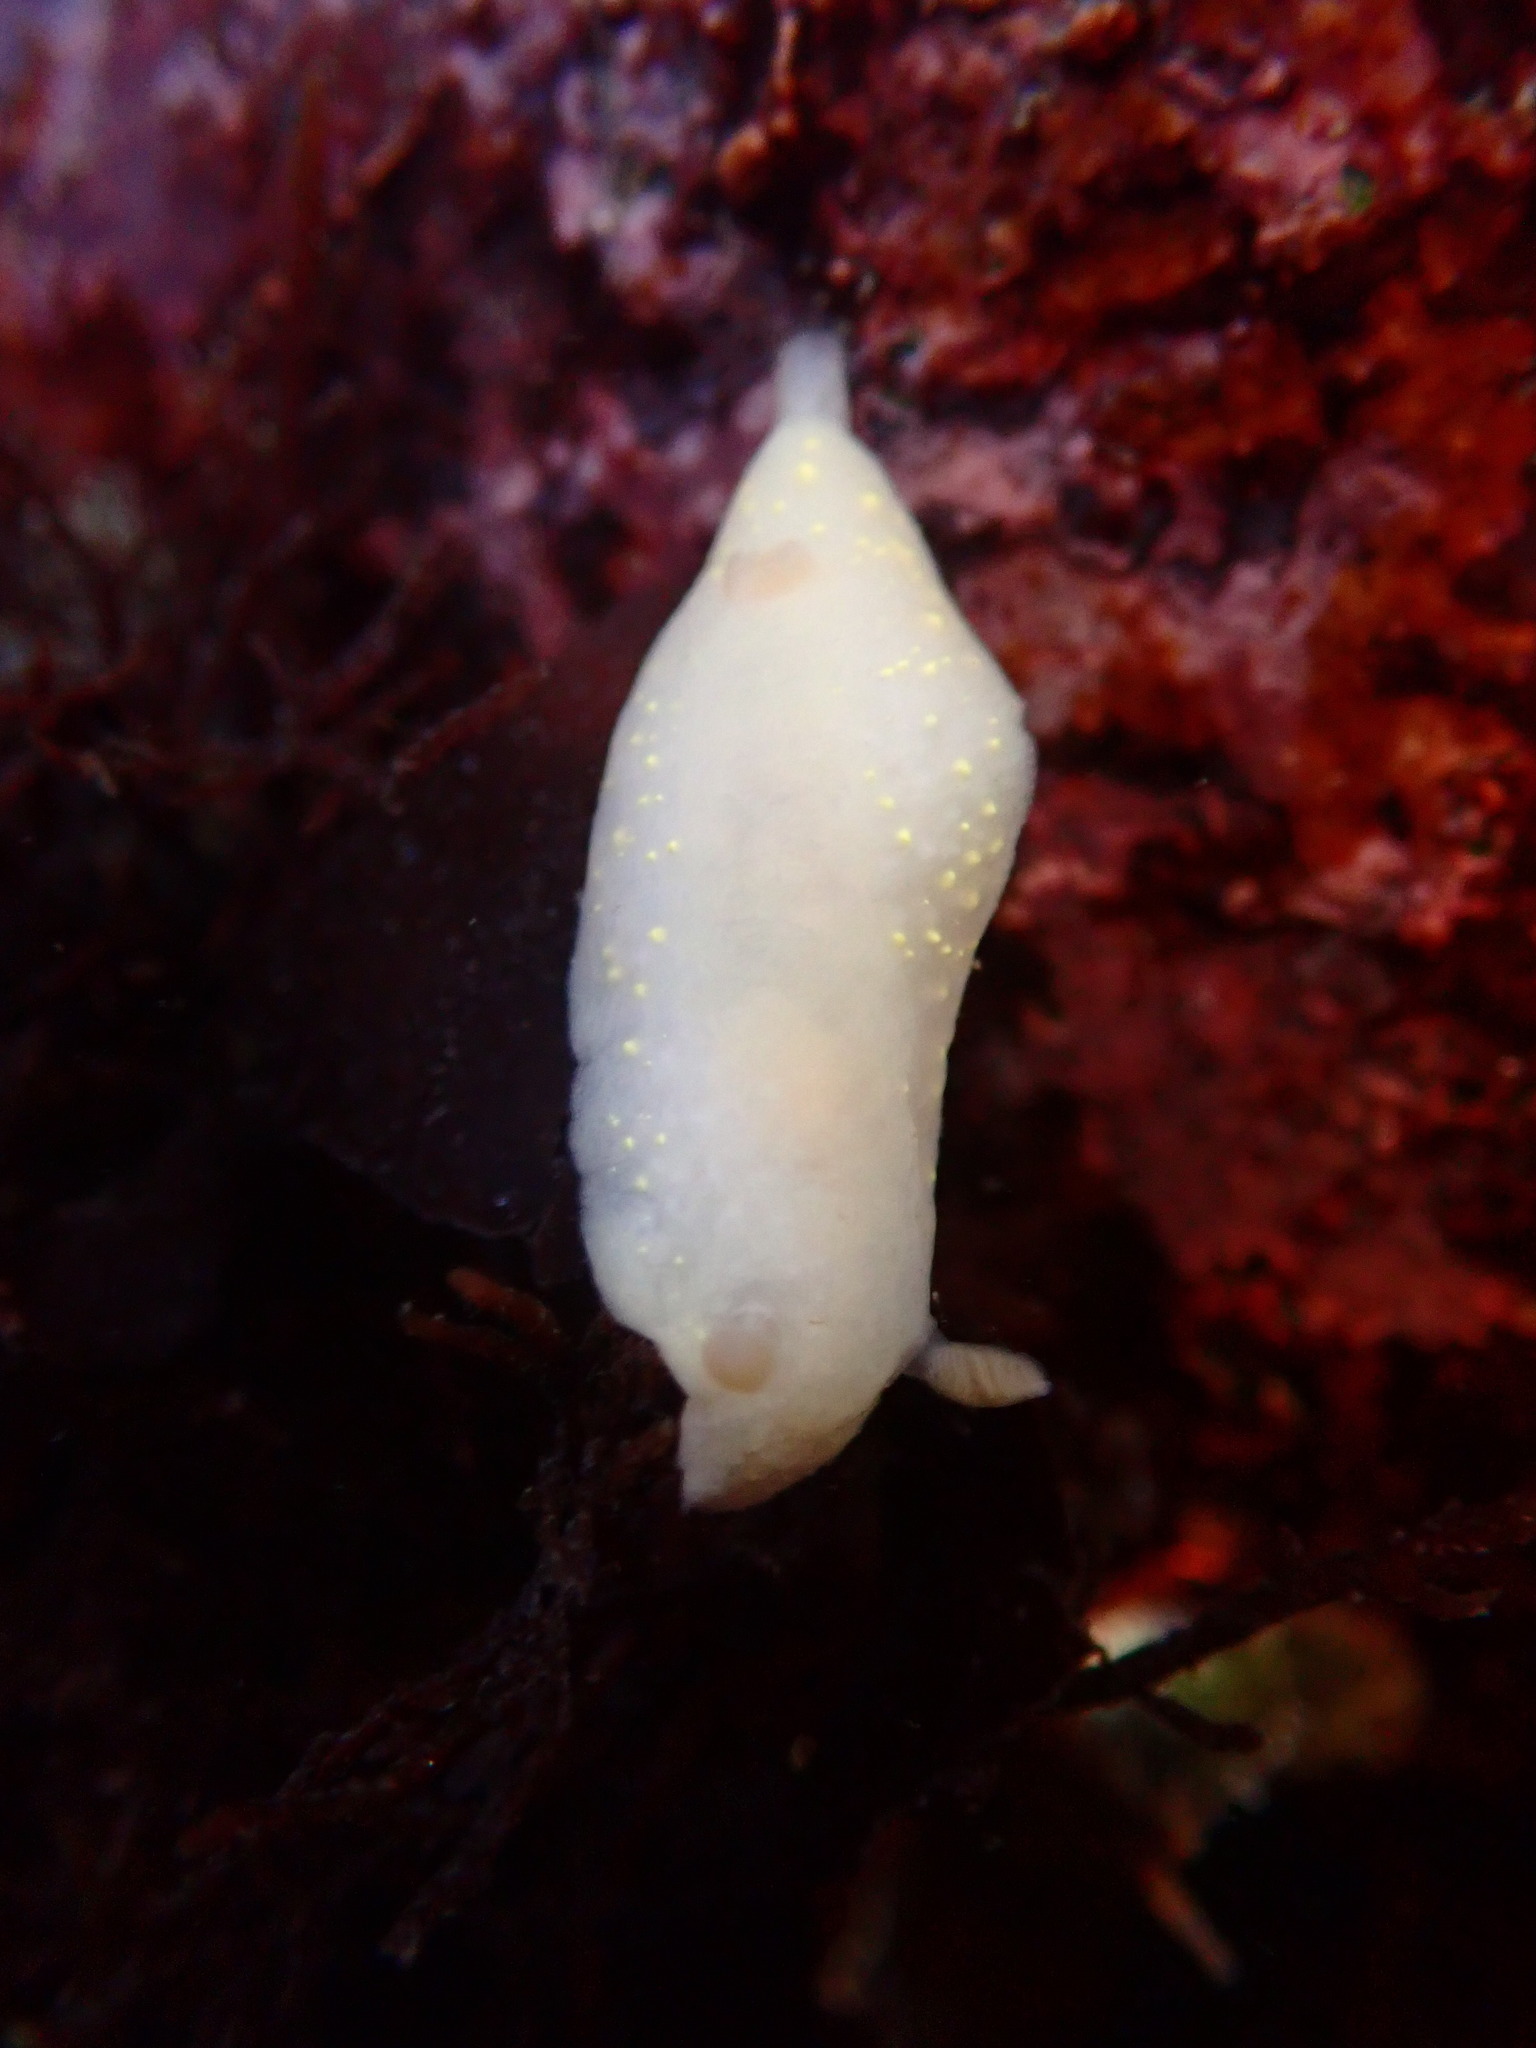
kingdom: Animalia
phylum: Mollusca
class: Gastropoda
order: Nudibranchia
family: Cadlinidae
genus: Cadlina
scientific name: Cadlina modesta
